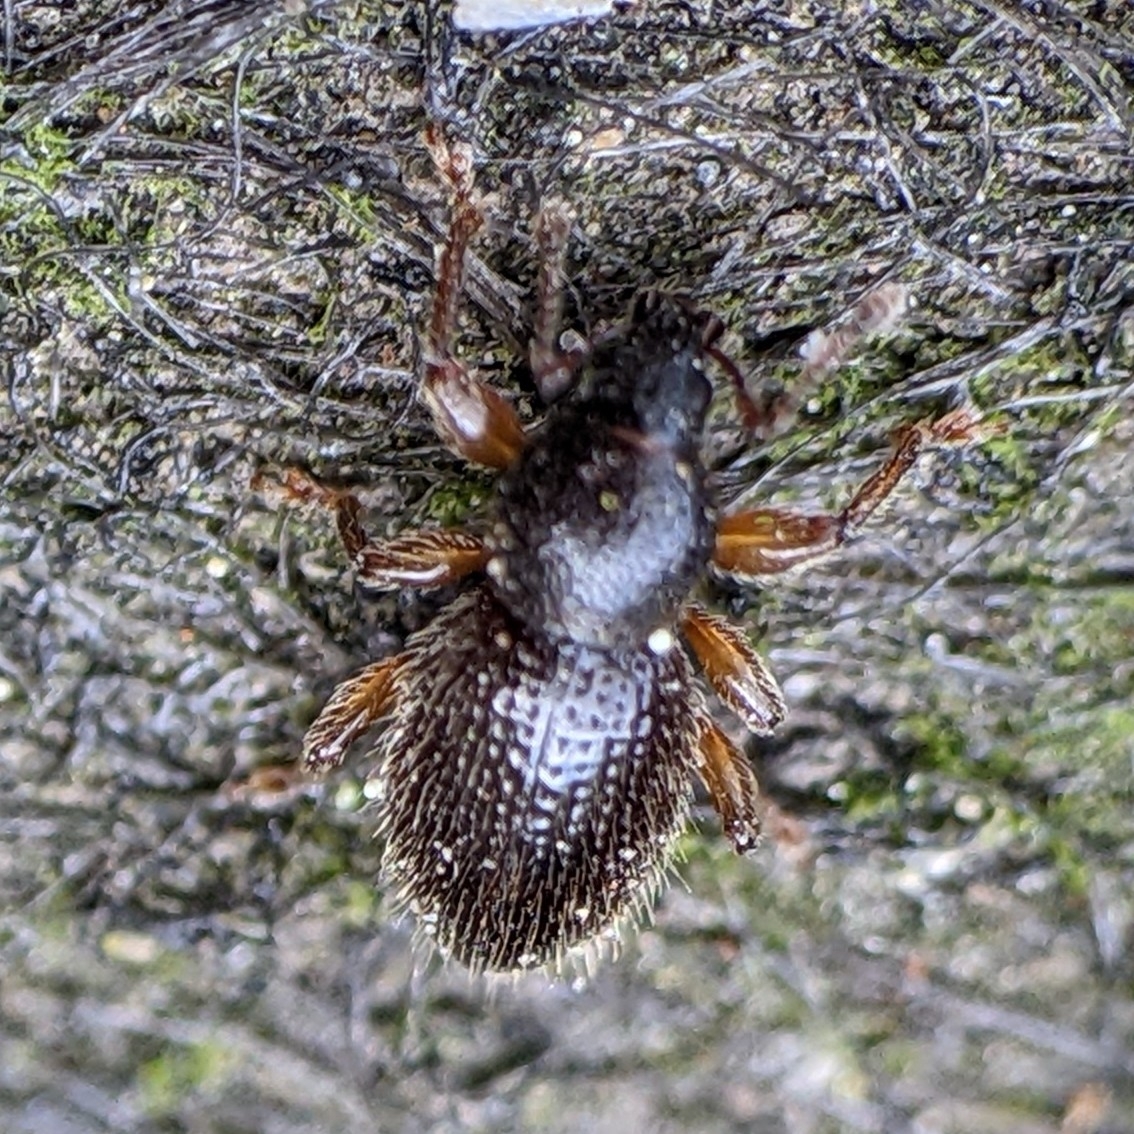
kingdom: Animalia
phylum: Arthropoda
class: Insecta
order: Coleoptera
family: Curculionidae
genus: Exomias
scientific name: Exomias pellucidus
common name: Hairy spider weevil
